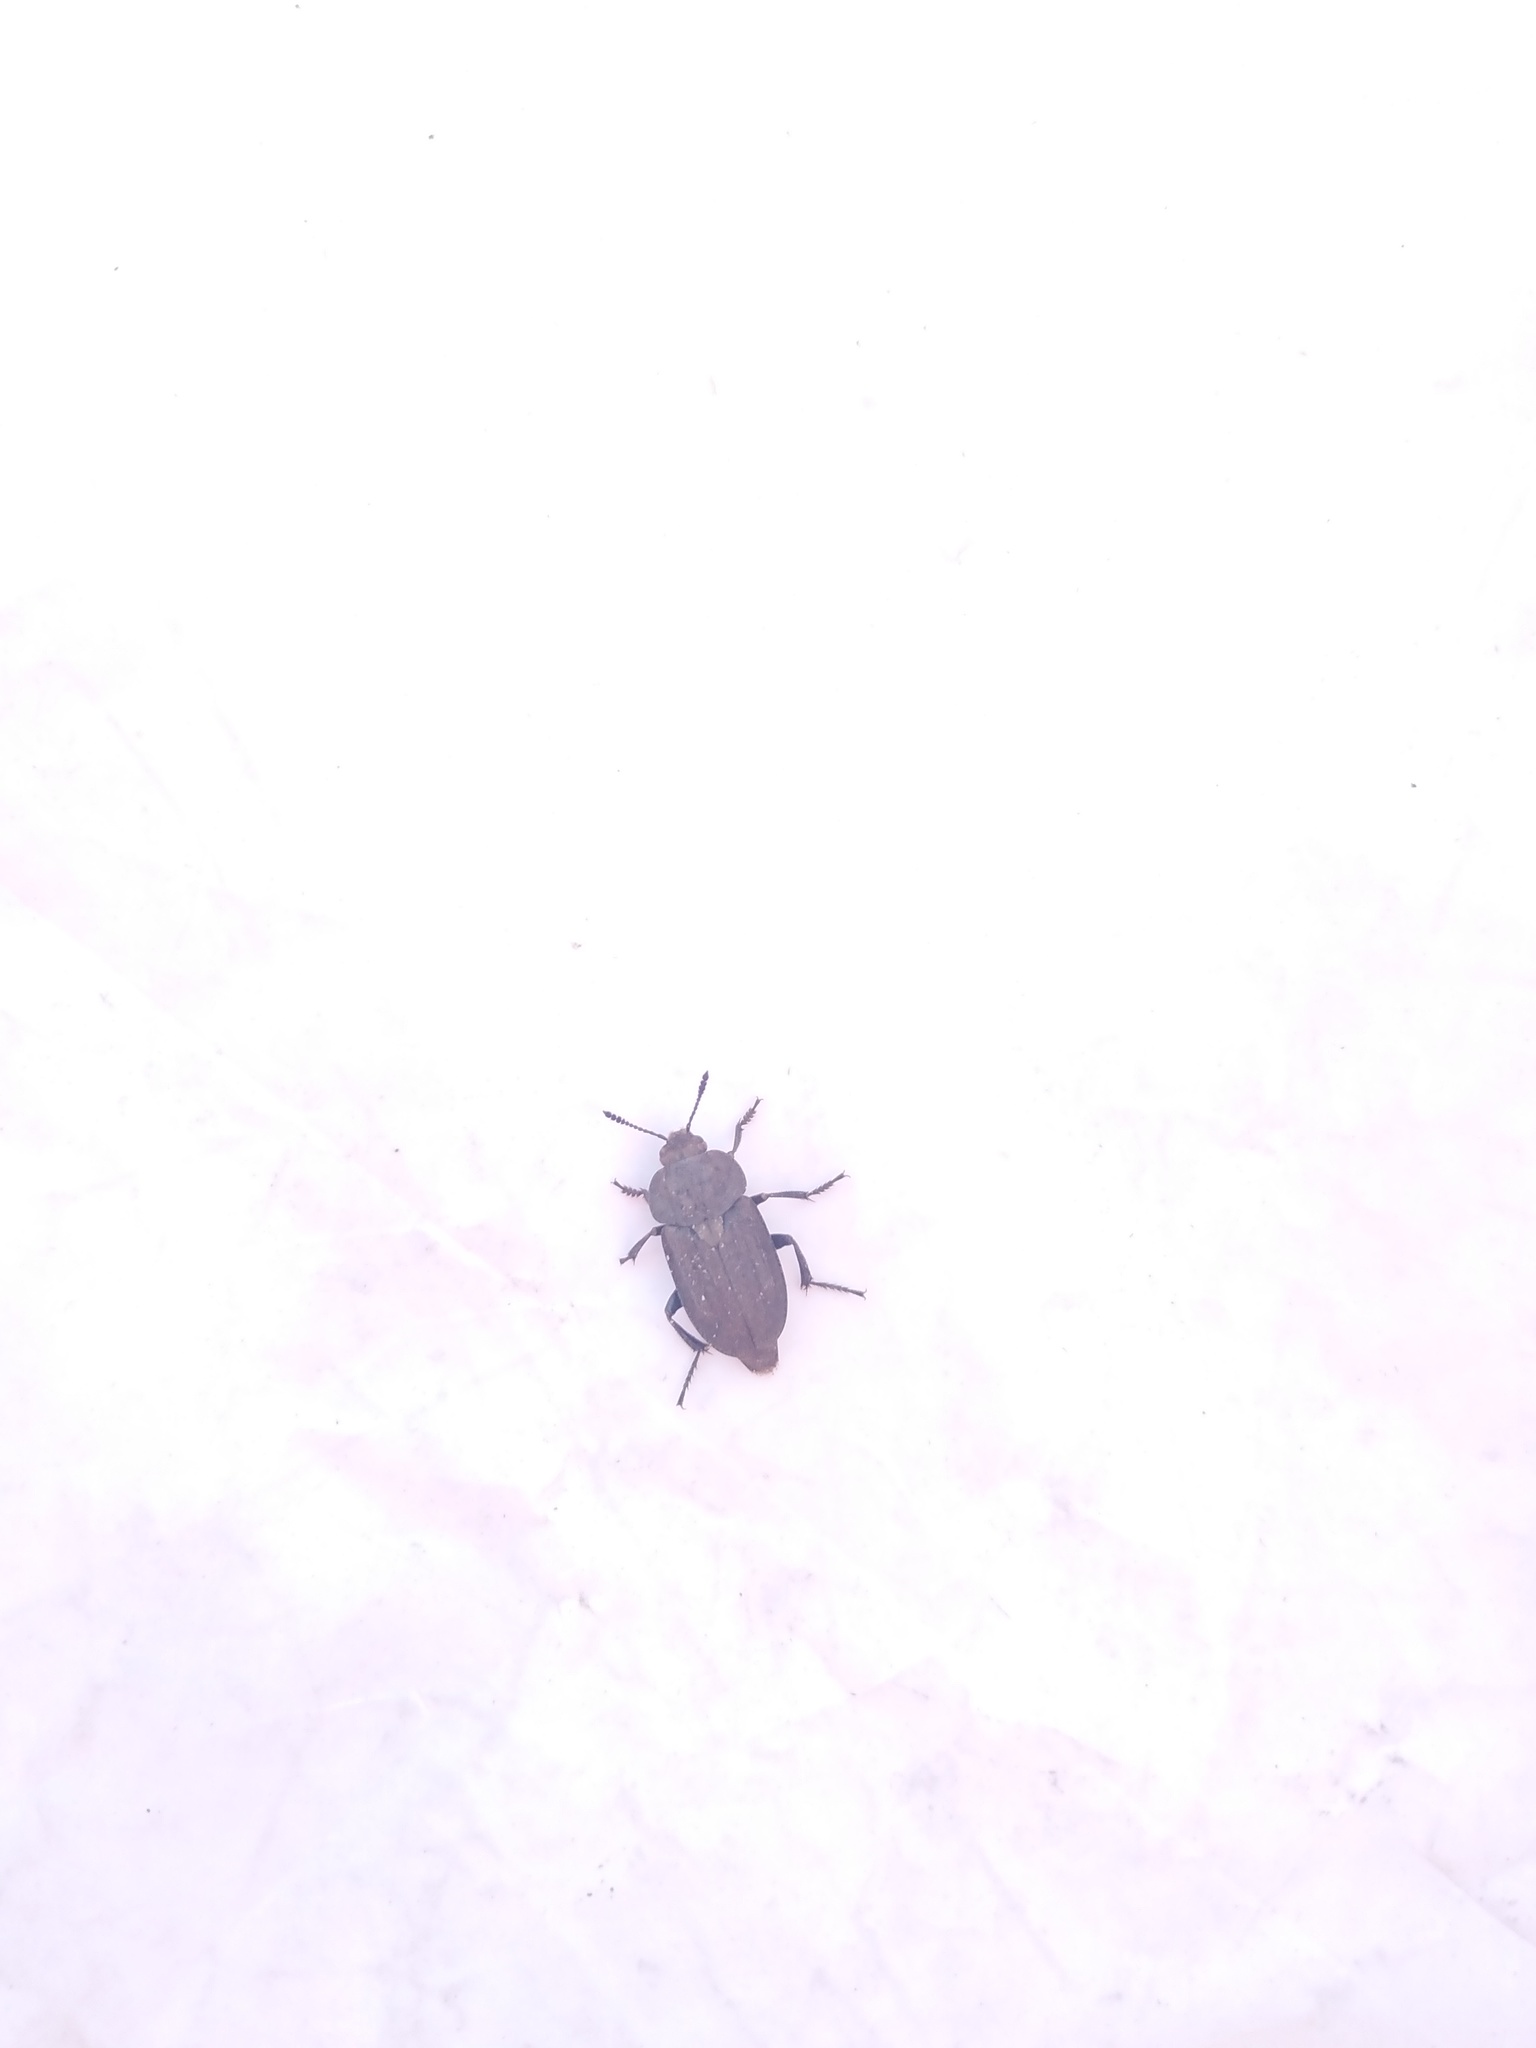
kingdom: Animalia
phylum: Arthropoda
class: Insecta
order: Coleoptera
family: Staphylinidae
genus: Aclypea
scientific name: Aclypea opaca
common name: Silphid beetle
